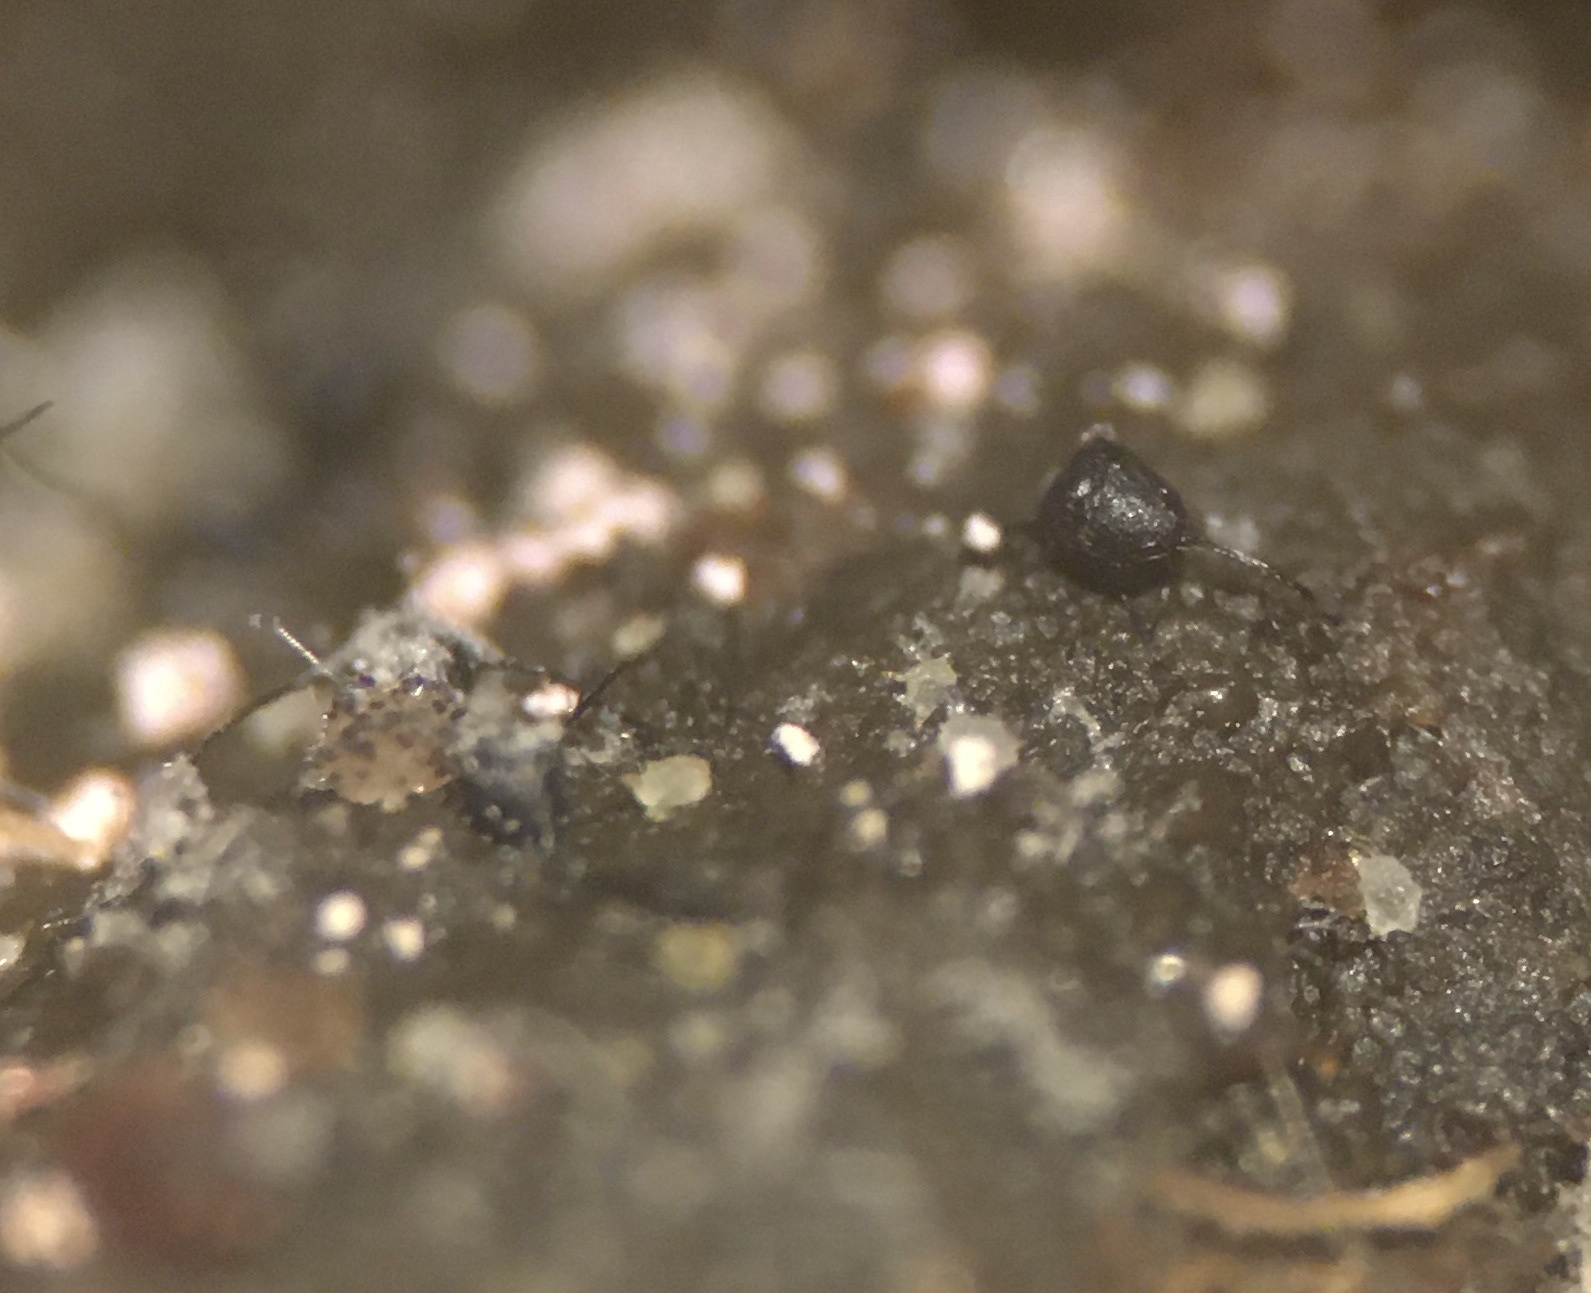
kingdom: Fungi
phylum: Ascomycota
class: Sordariomycetes
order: Microascales
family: Microascaceae
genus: Kernia
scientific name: Kernia nitida
